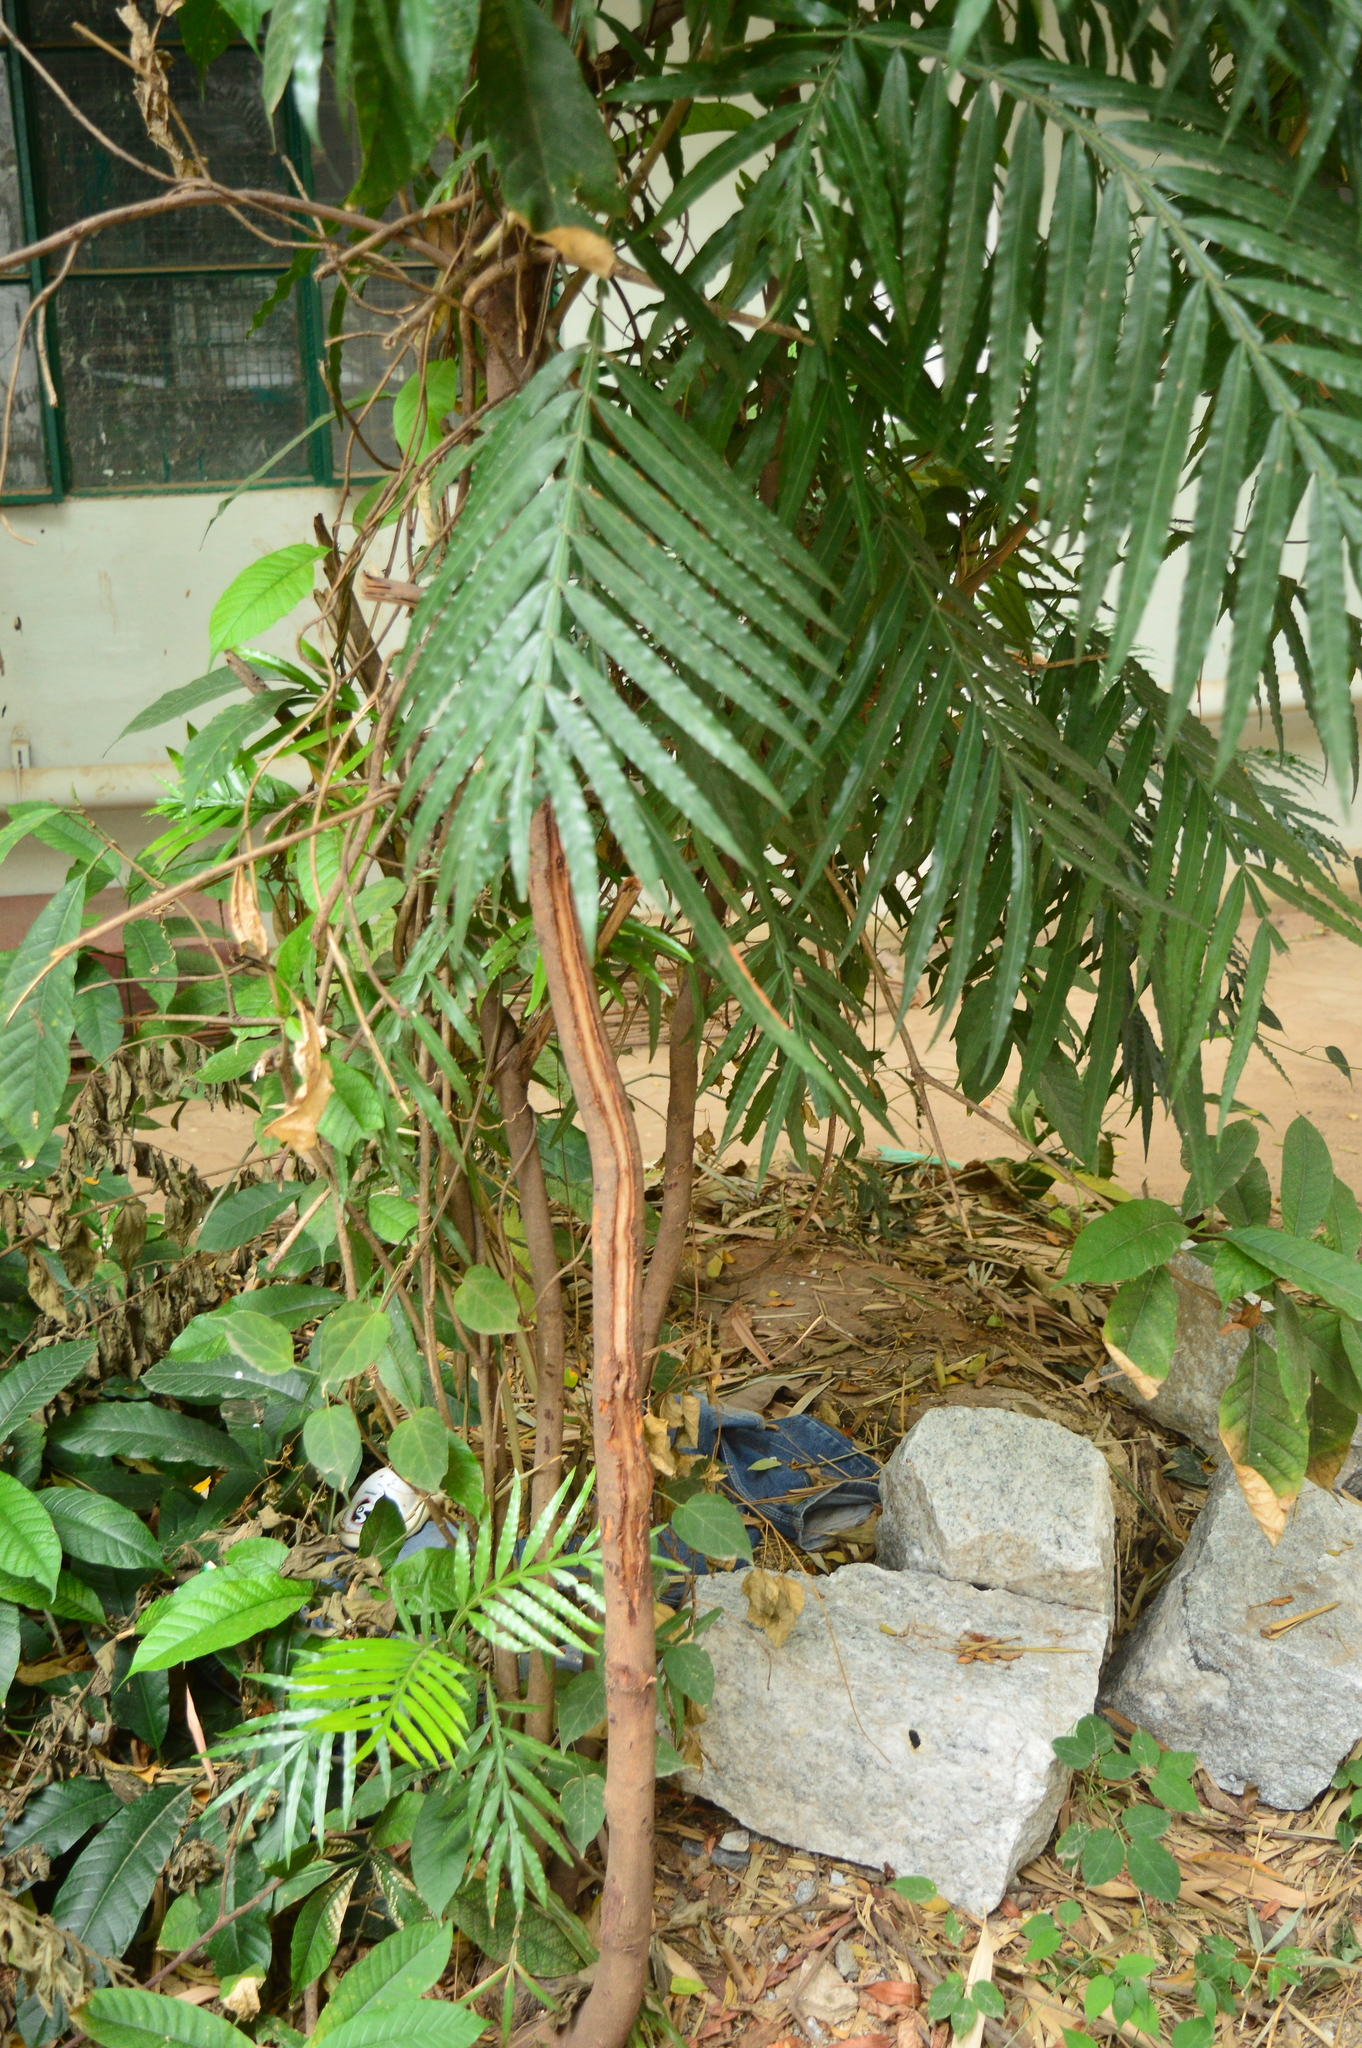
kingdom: Plantae
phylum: Tracheophyta
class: Magnoliopsida
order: Sapindales
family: Sapindaceae
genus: Filicium
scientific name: Filicium decipiens
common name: Ferntree
